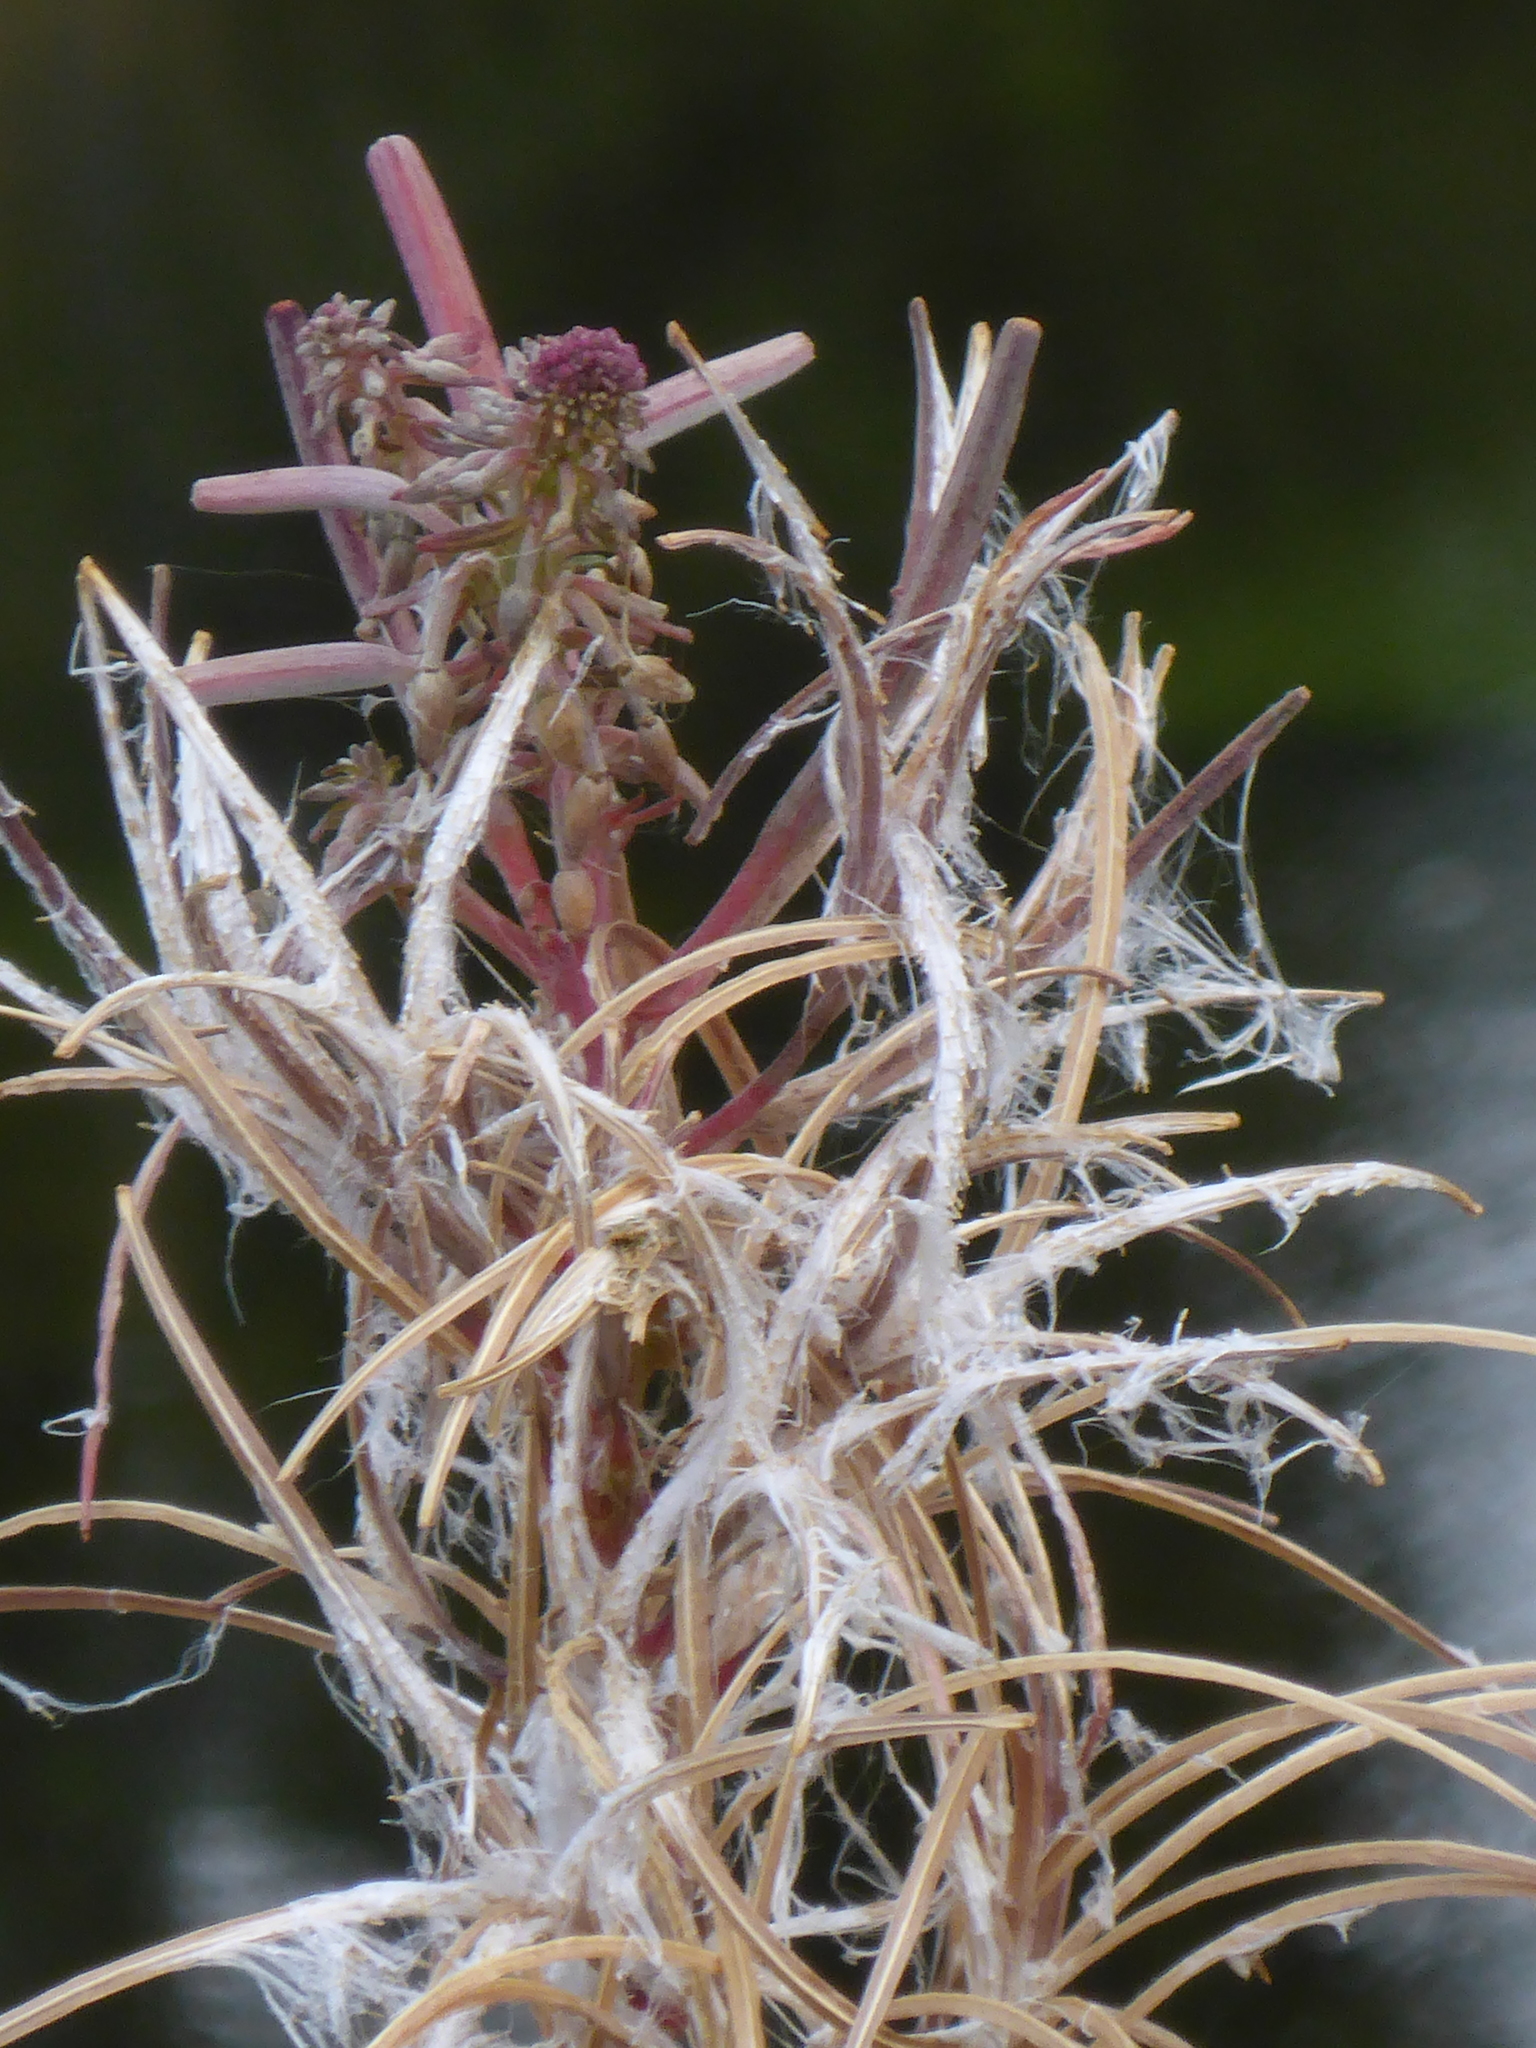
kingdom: Plantae
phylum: Tracheophyta
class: Magnoliopsida
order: Myrtales
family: Onagraceae
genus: Chamaenerion
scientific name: Chamaenerion angustifolium
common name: Fireweed
